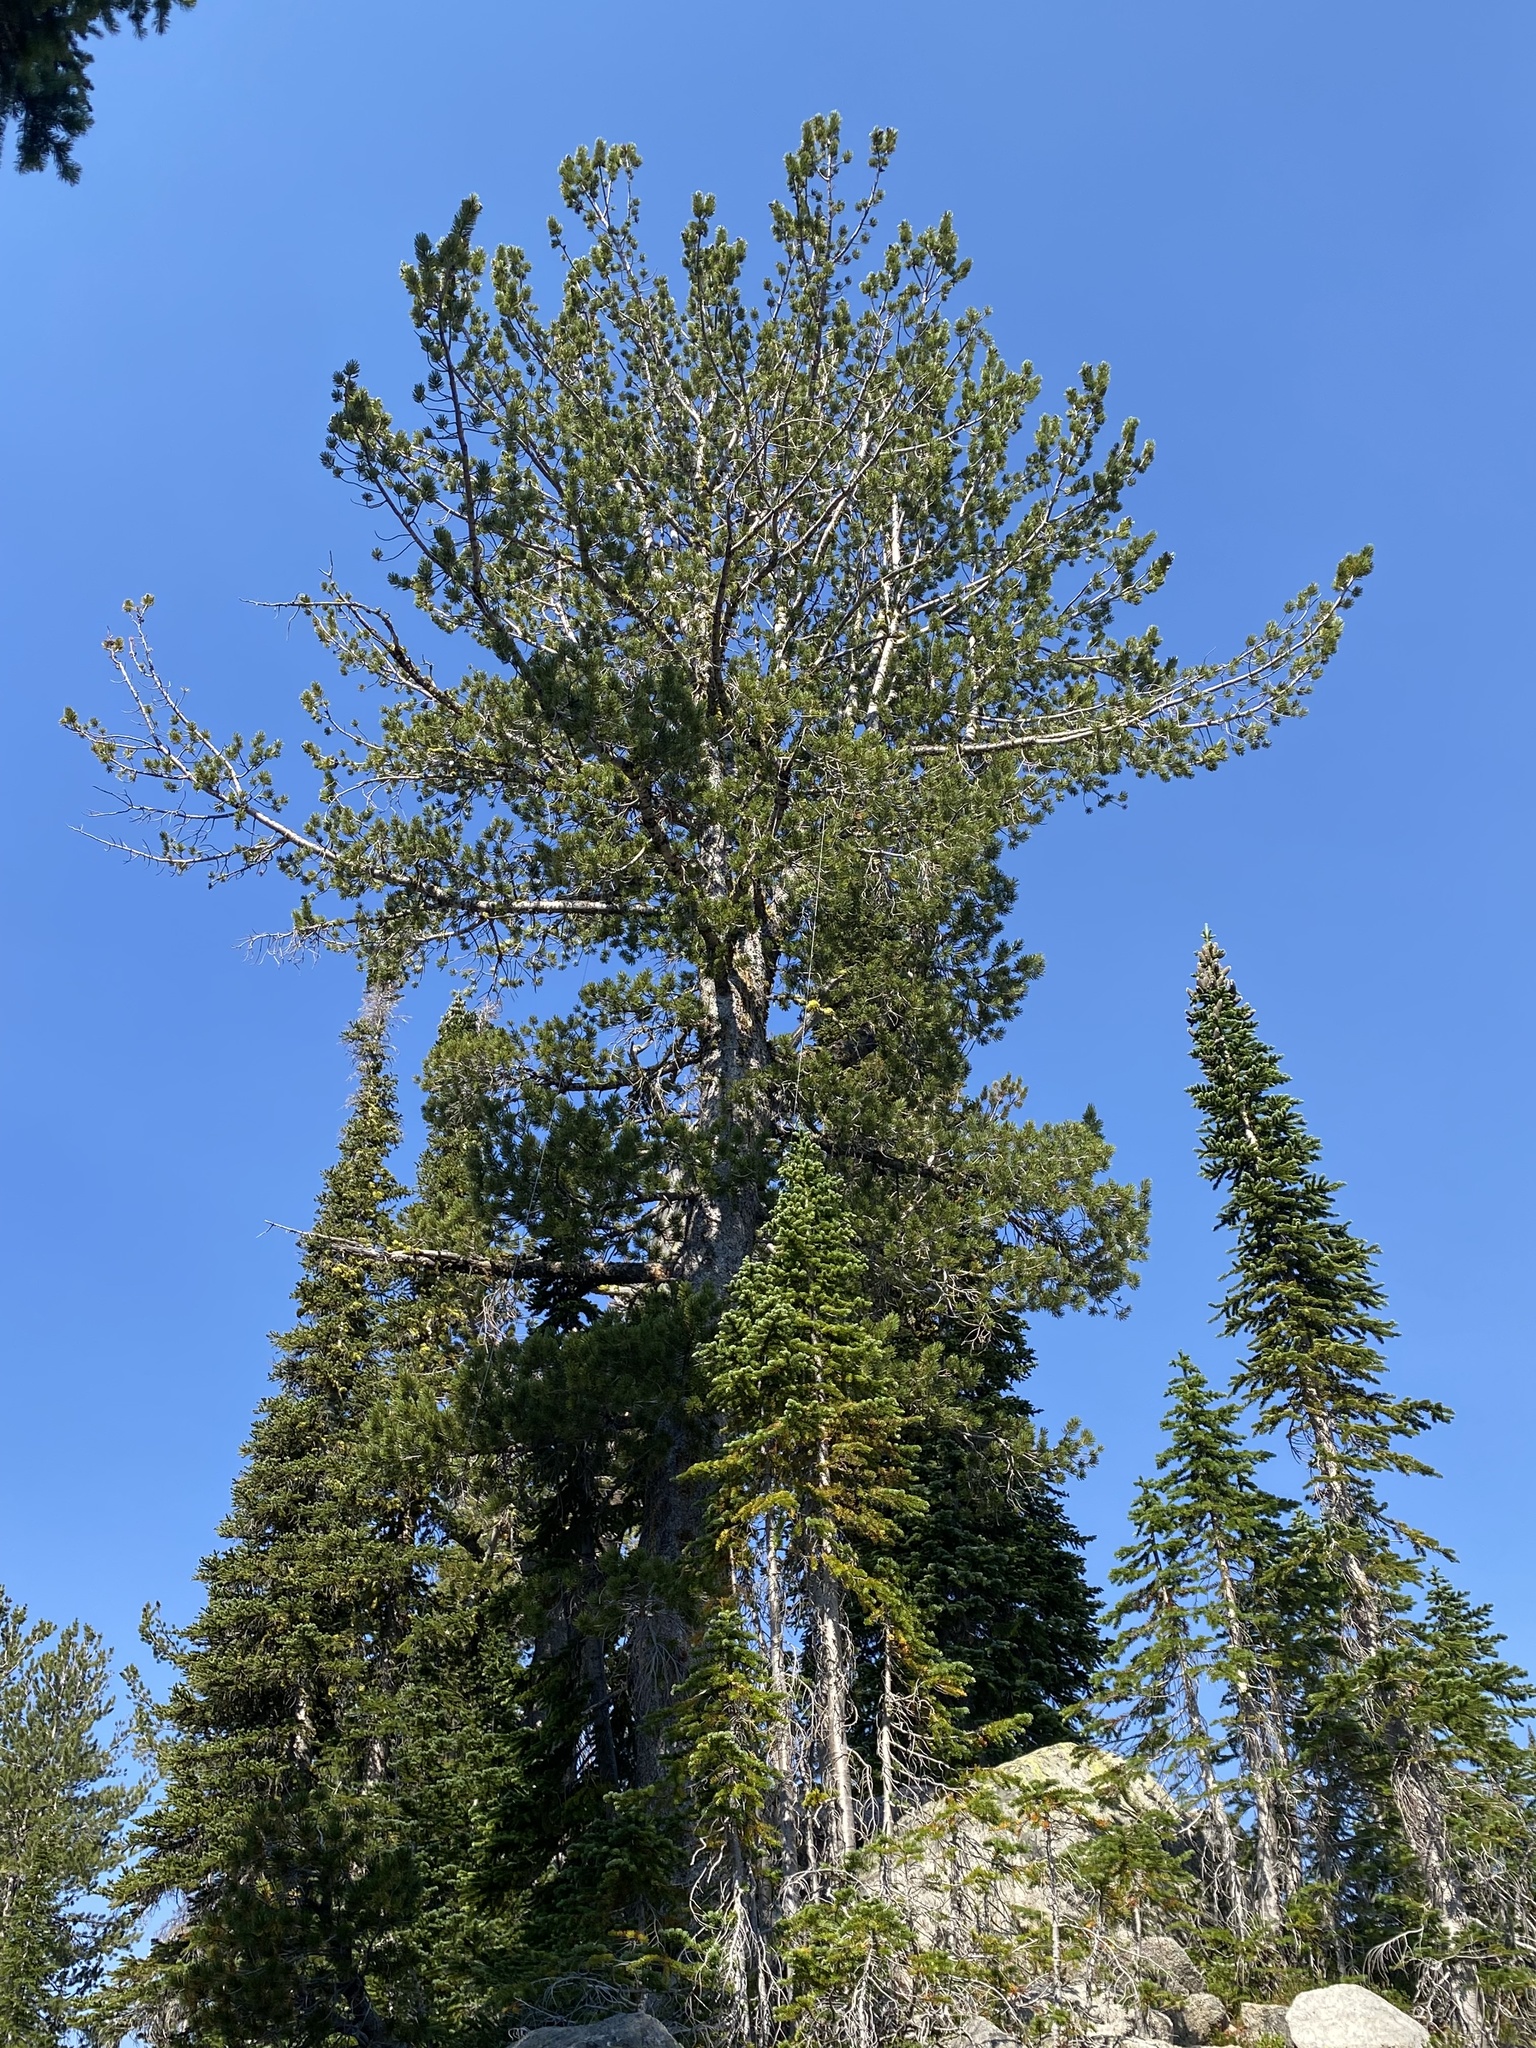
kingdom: Plantae
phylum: Tracheophyta
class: Pinopsida
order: Pinales
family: Pinaceae
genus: Pinus
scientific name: Pinus albicaulis
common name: Whitebark pine
